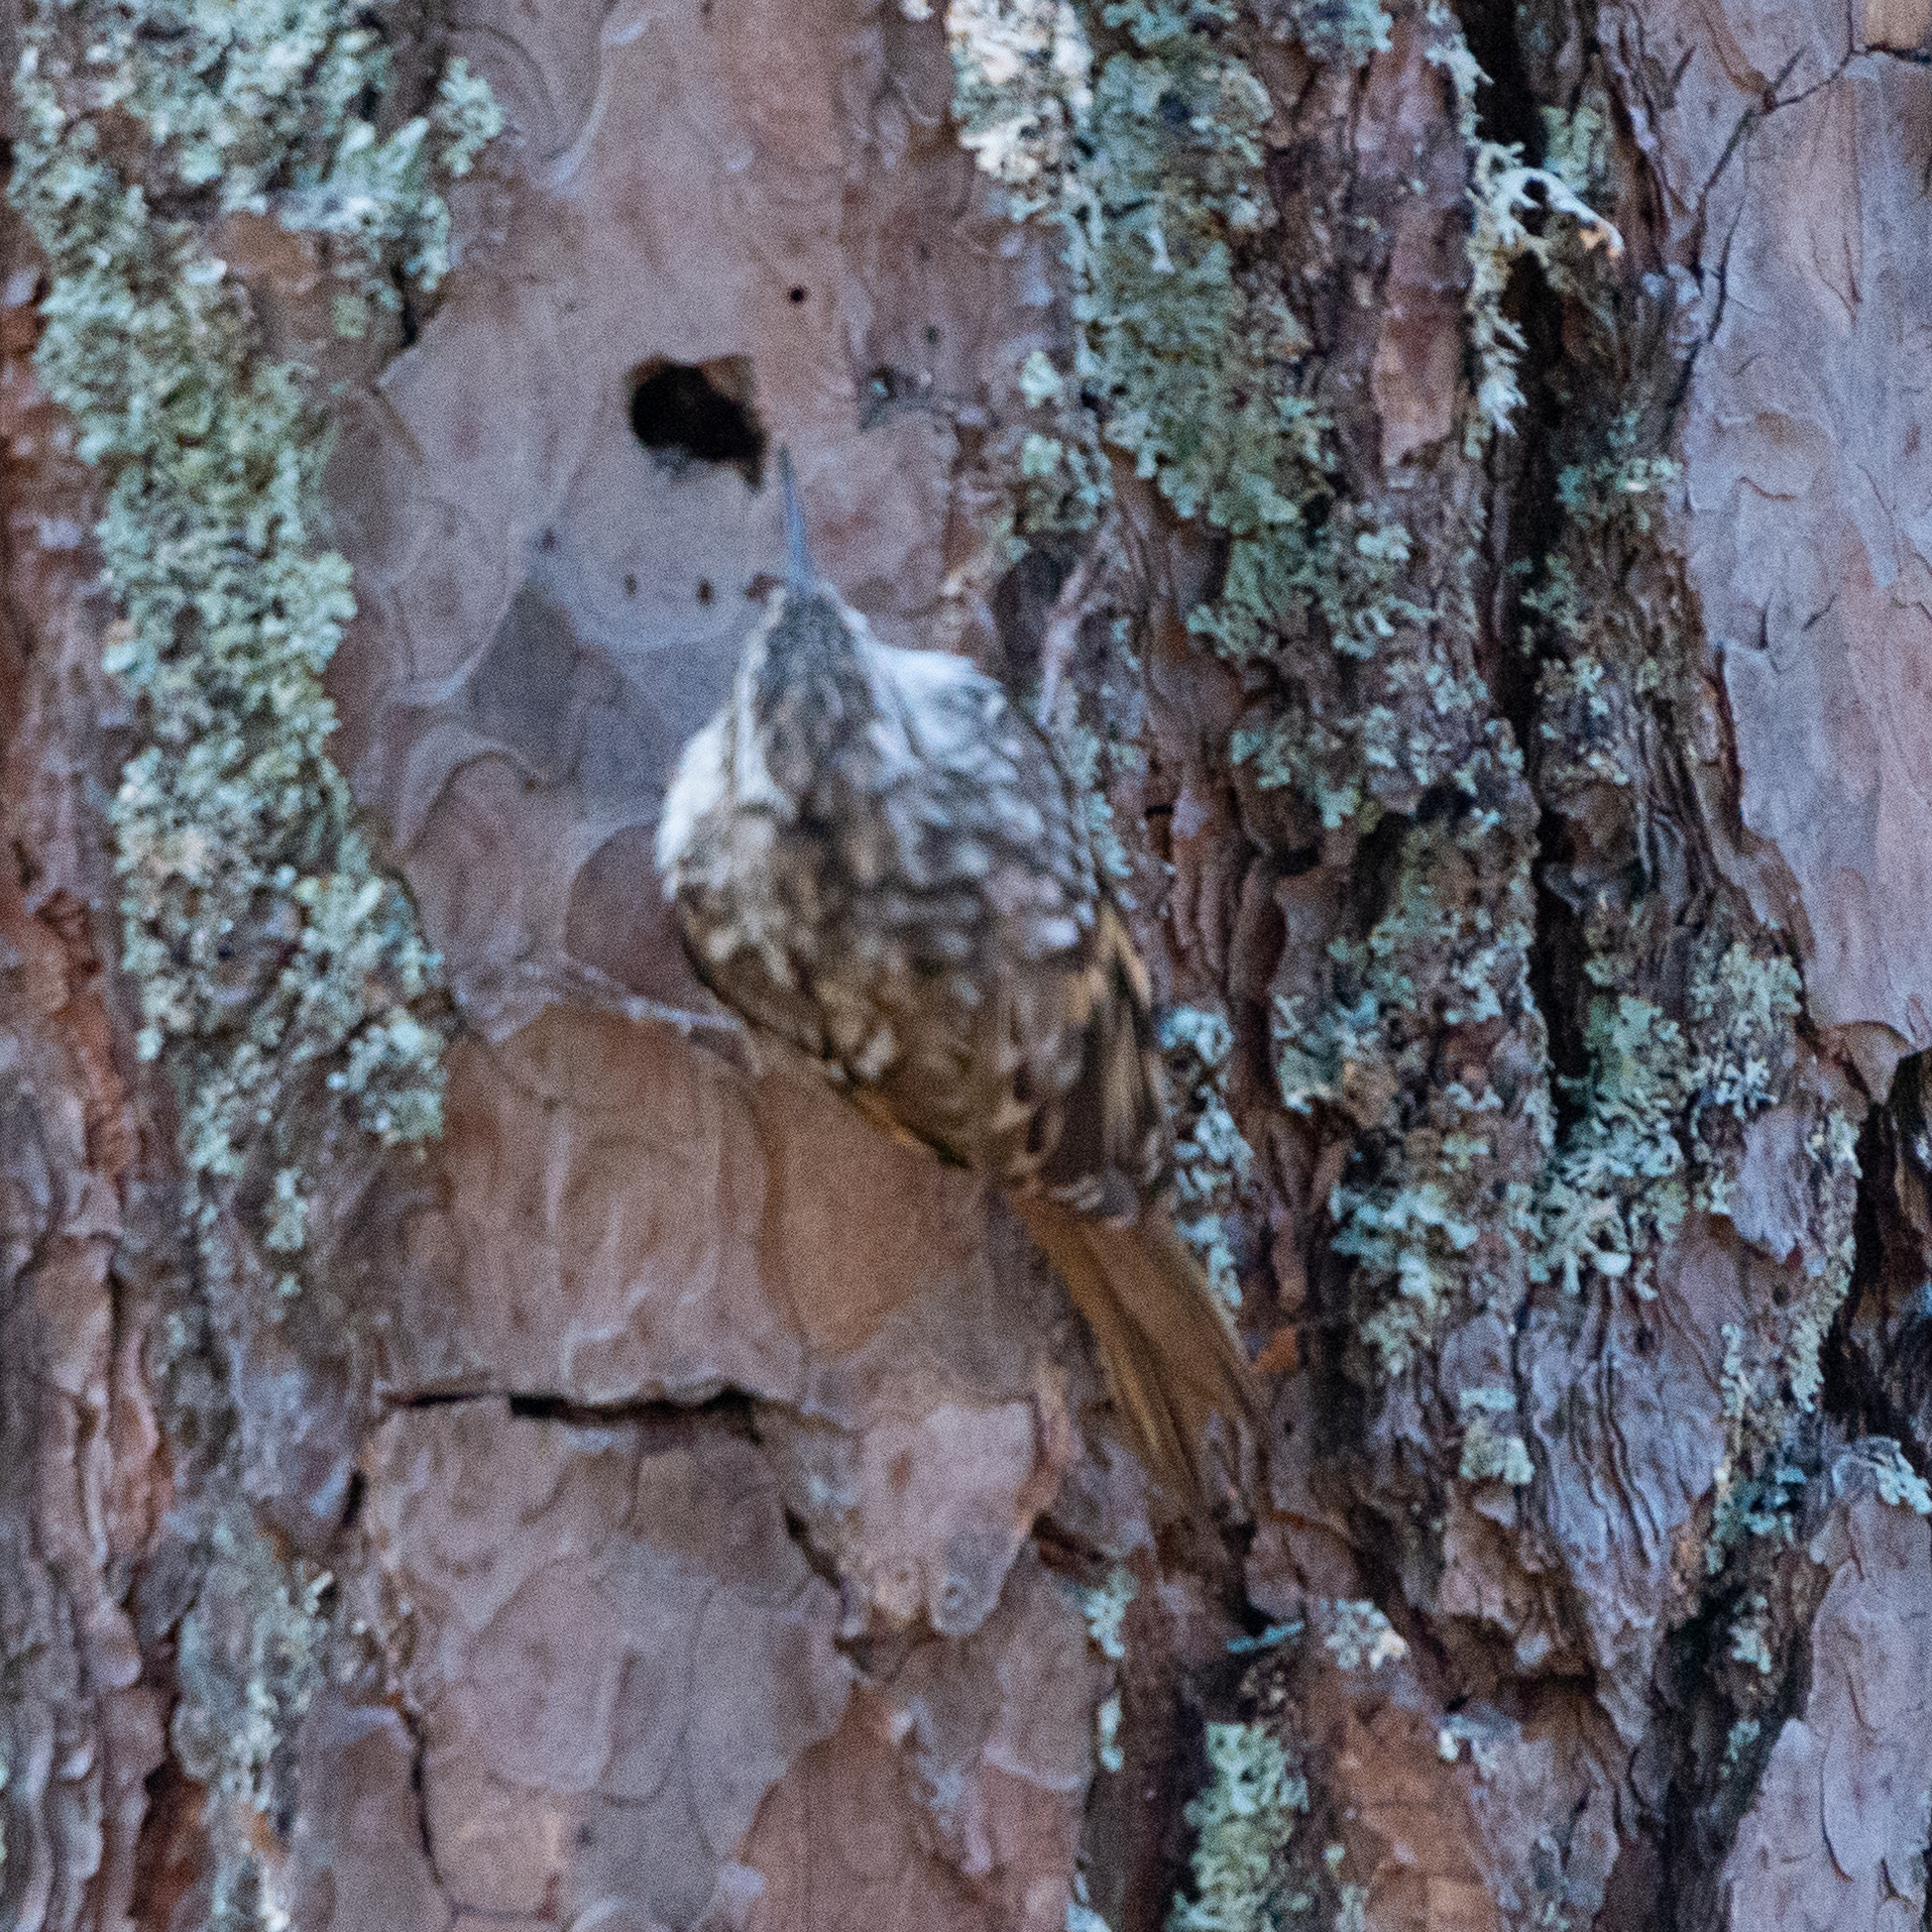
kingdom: Animalia
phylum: Chordata
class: Aves
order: Passeriformes
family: Certhiidae
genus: Certhia
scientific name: Certhia brachydactyla
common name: Short-toed treecreeper
